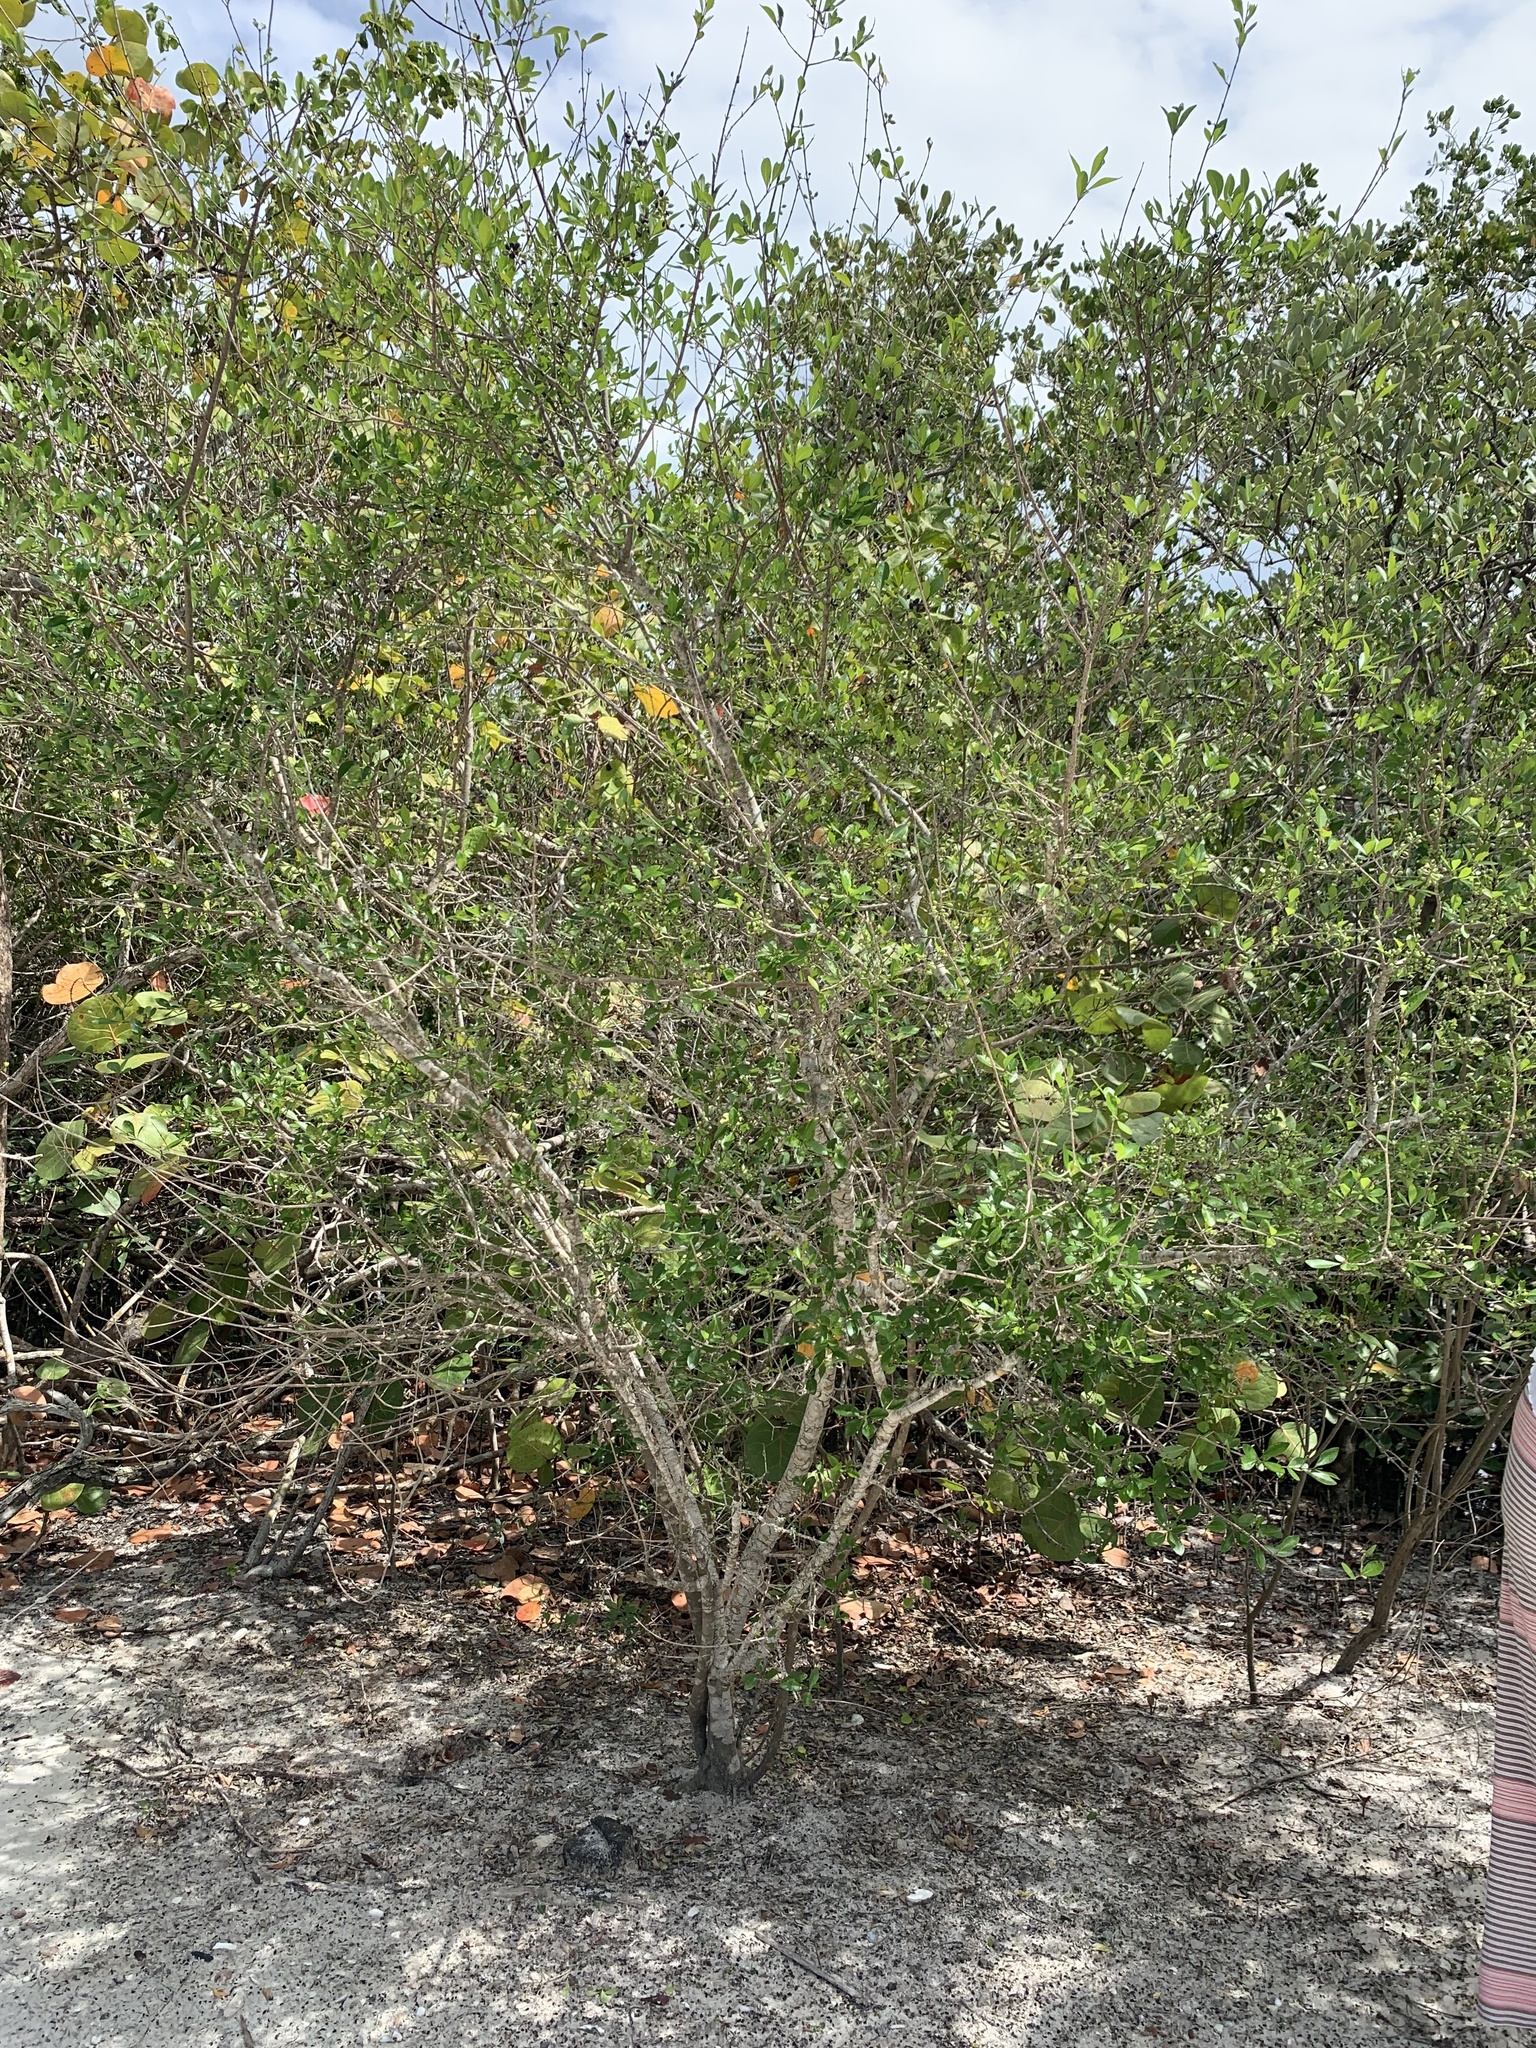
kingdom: Plantae
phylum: Tracheophyta
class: Magnoliopsida
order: Lamiales
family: Oleaceae
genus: Forestiera
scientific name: Forestiera segregata
